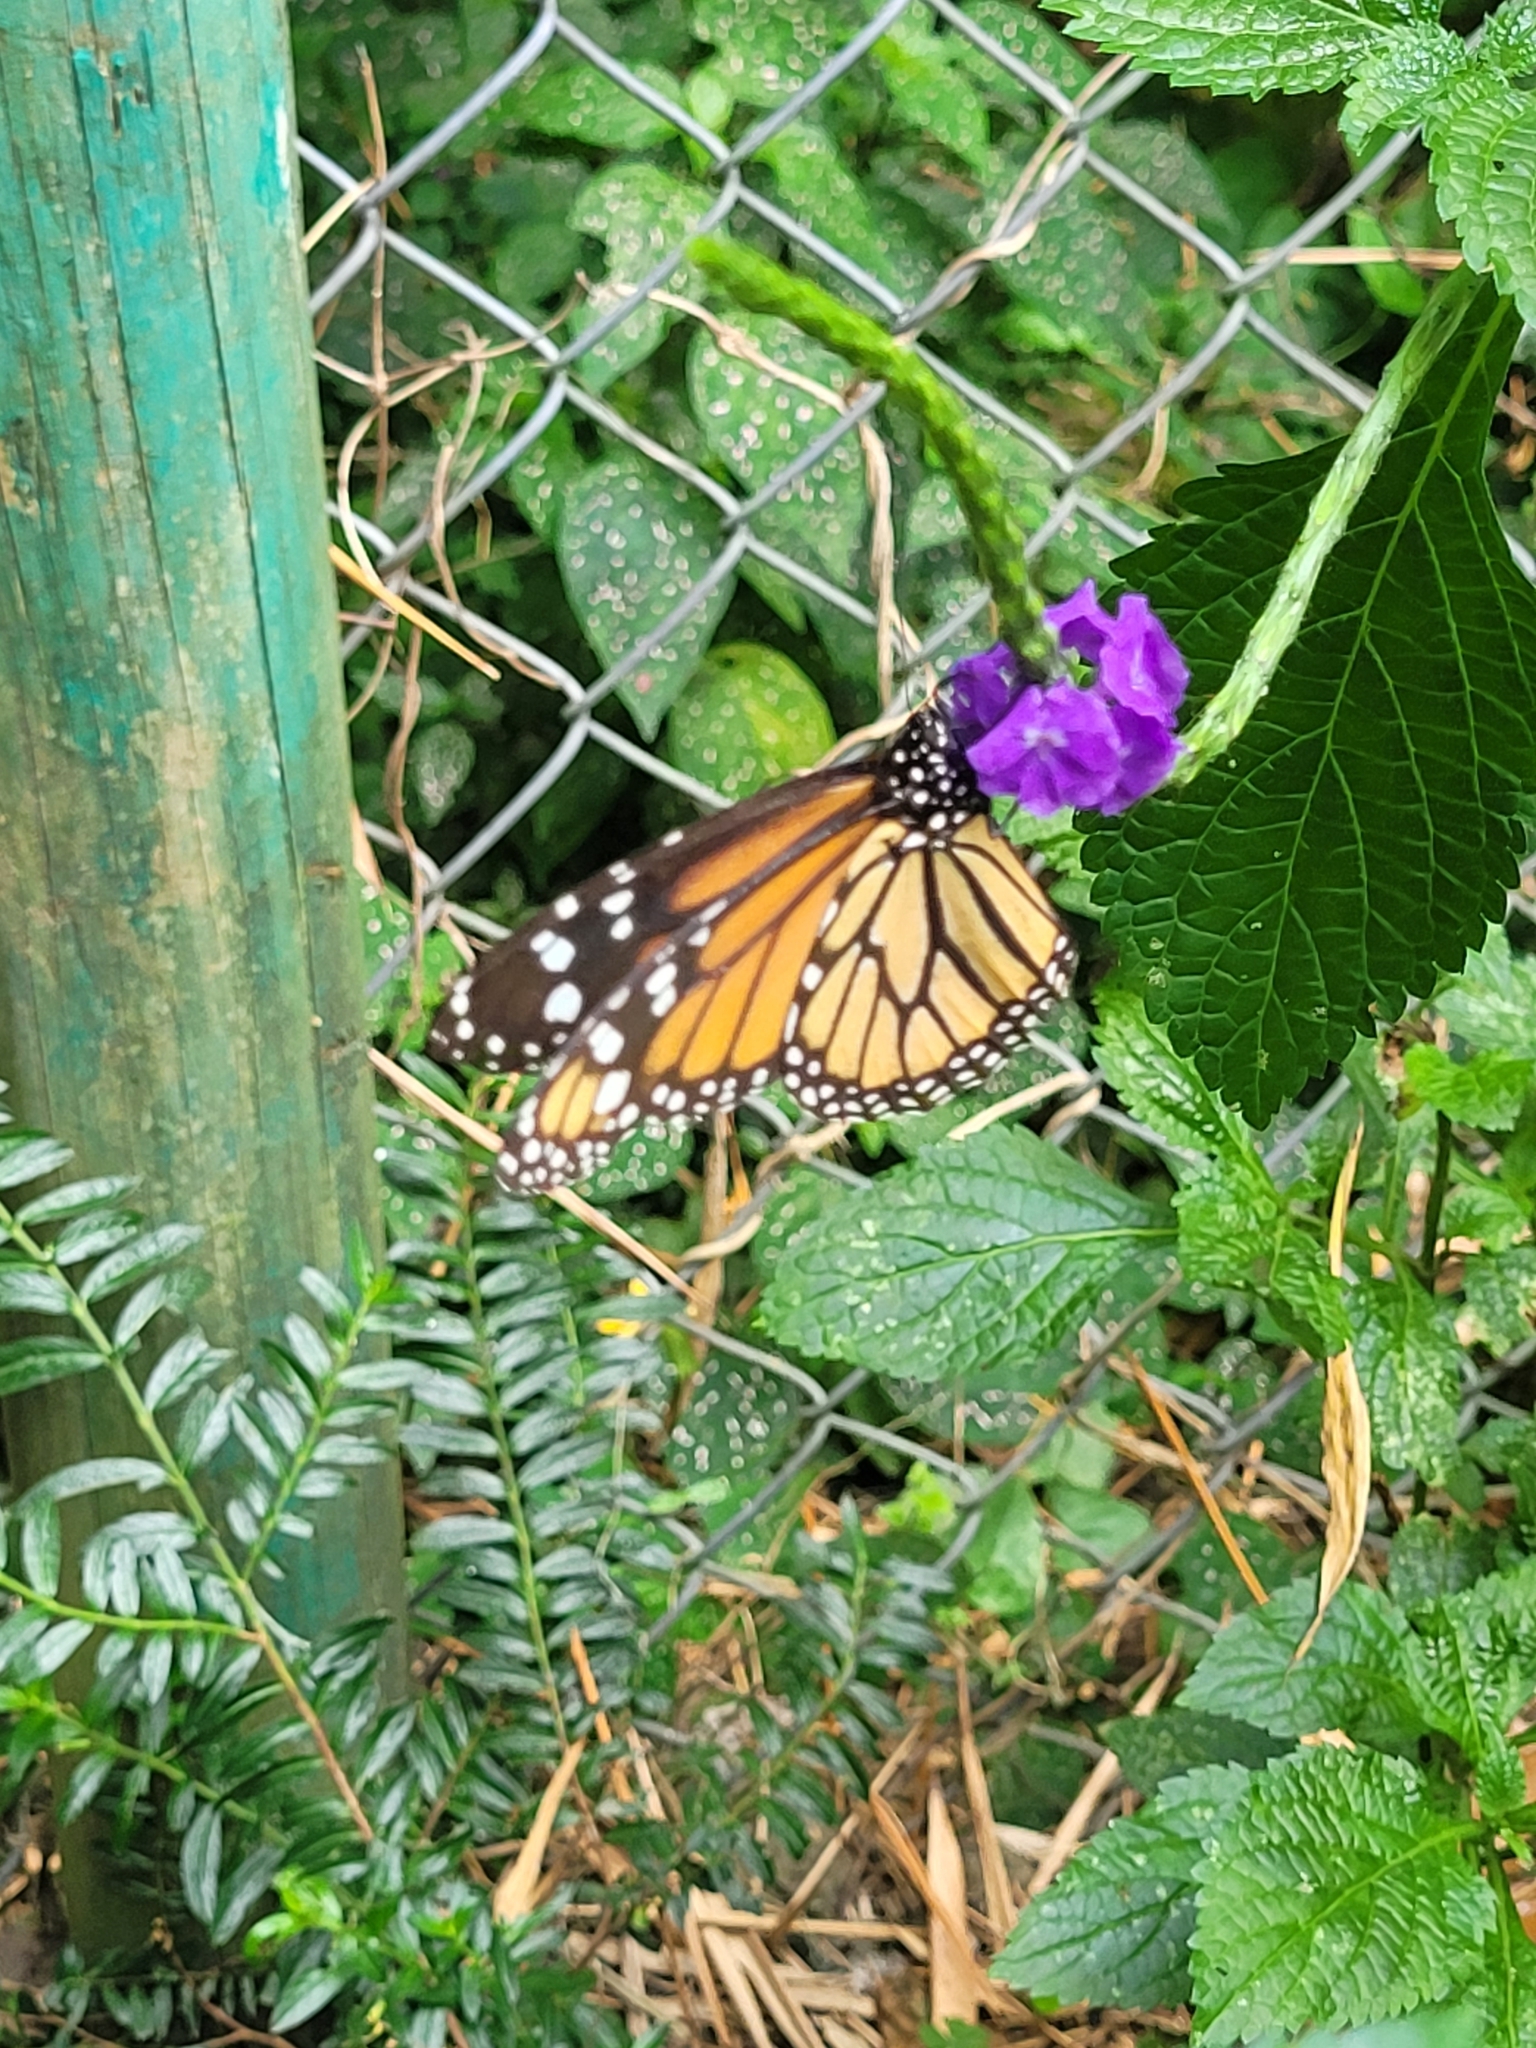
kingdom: Animalia
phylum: Arthropoda
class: Insecta
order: Lepidoptera
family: Nymphalidae
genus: Danaus
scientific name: Danaus plexippus
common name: Monarch
